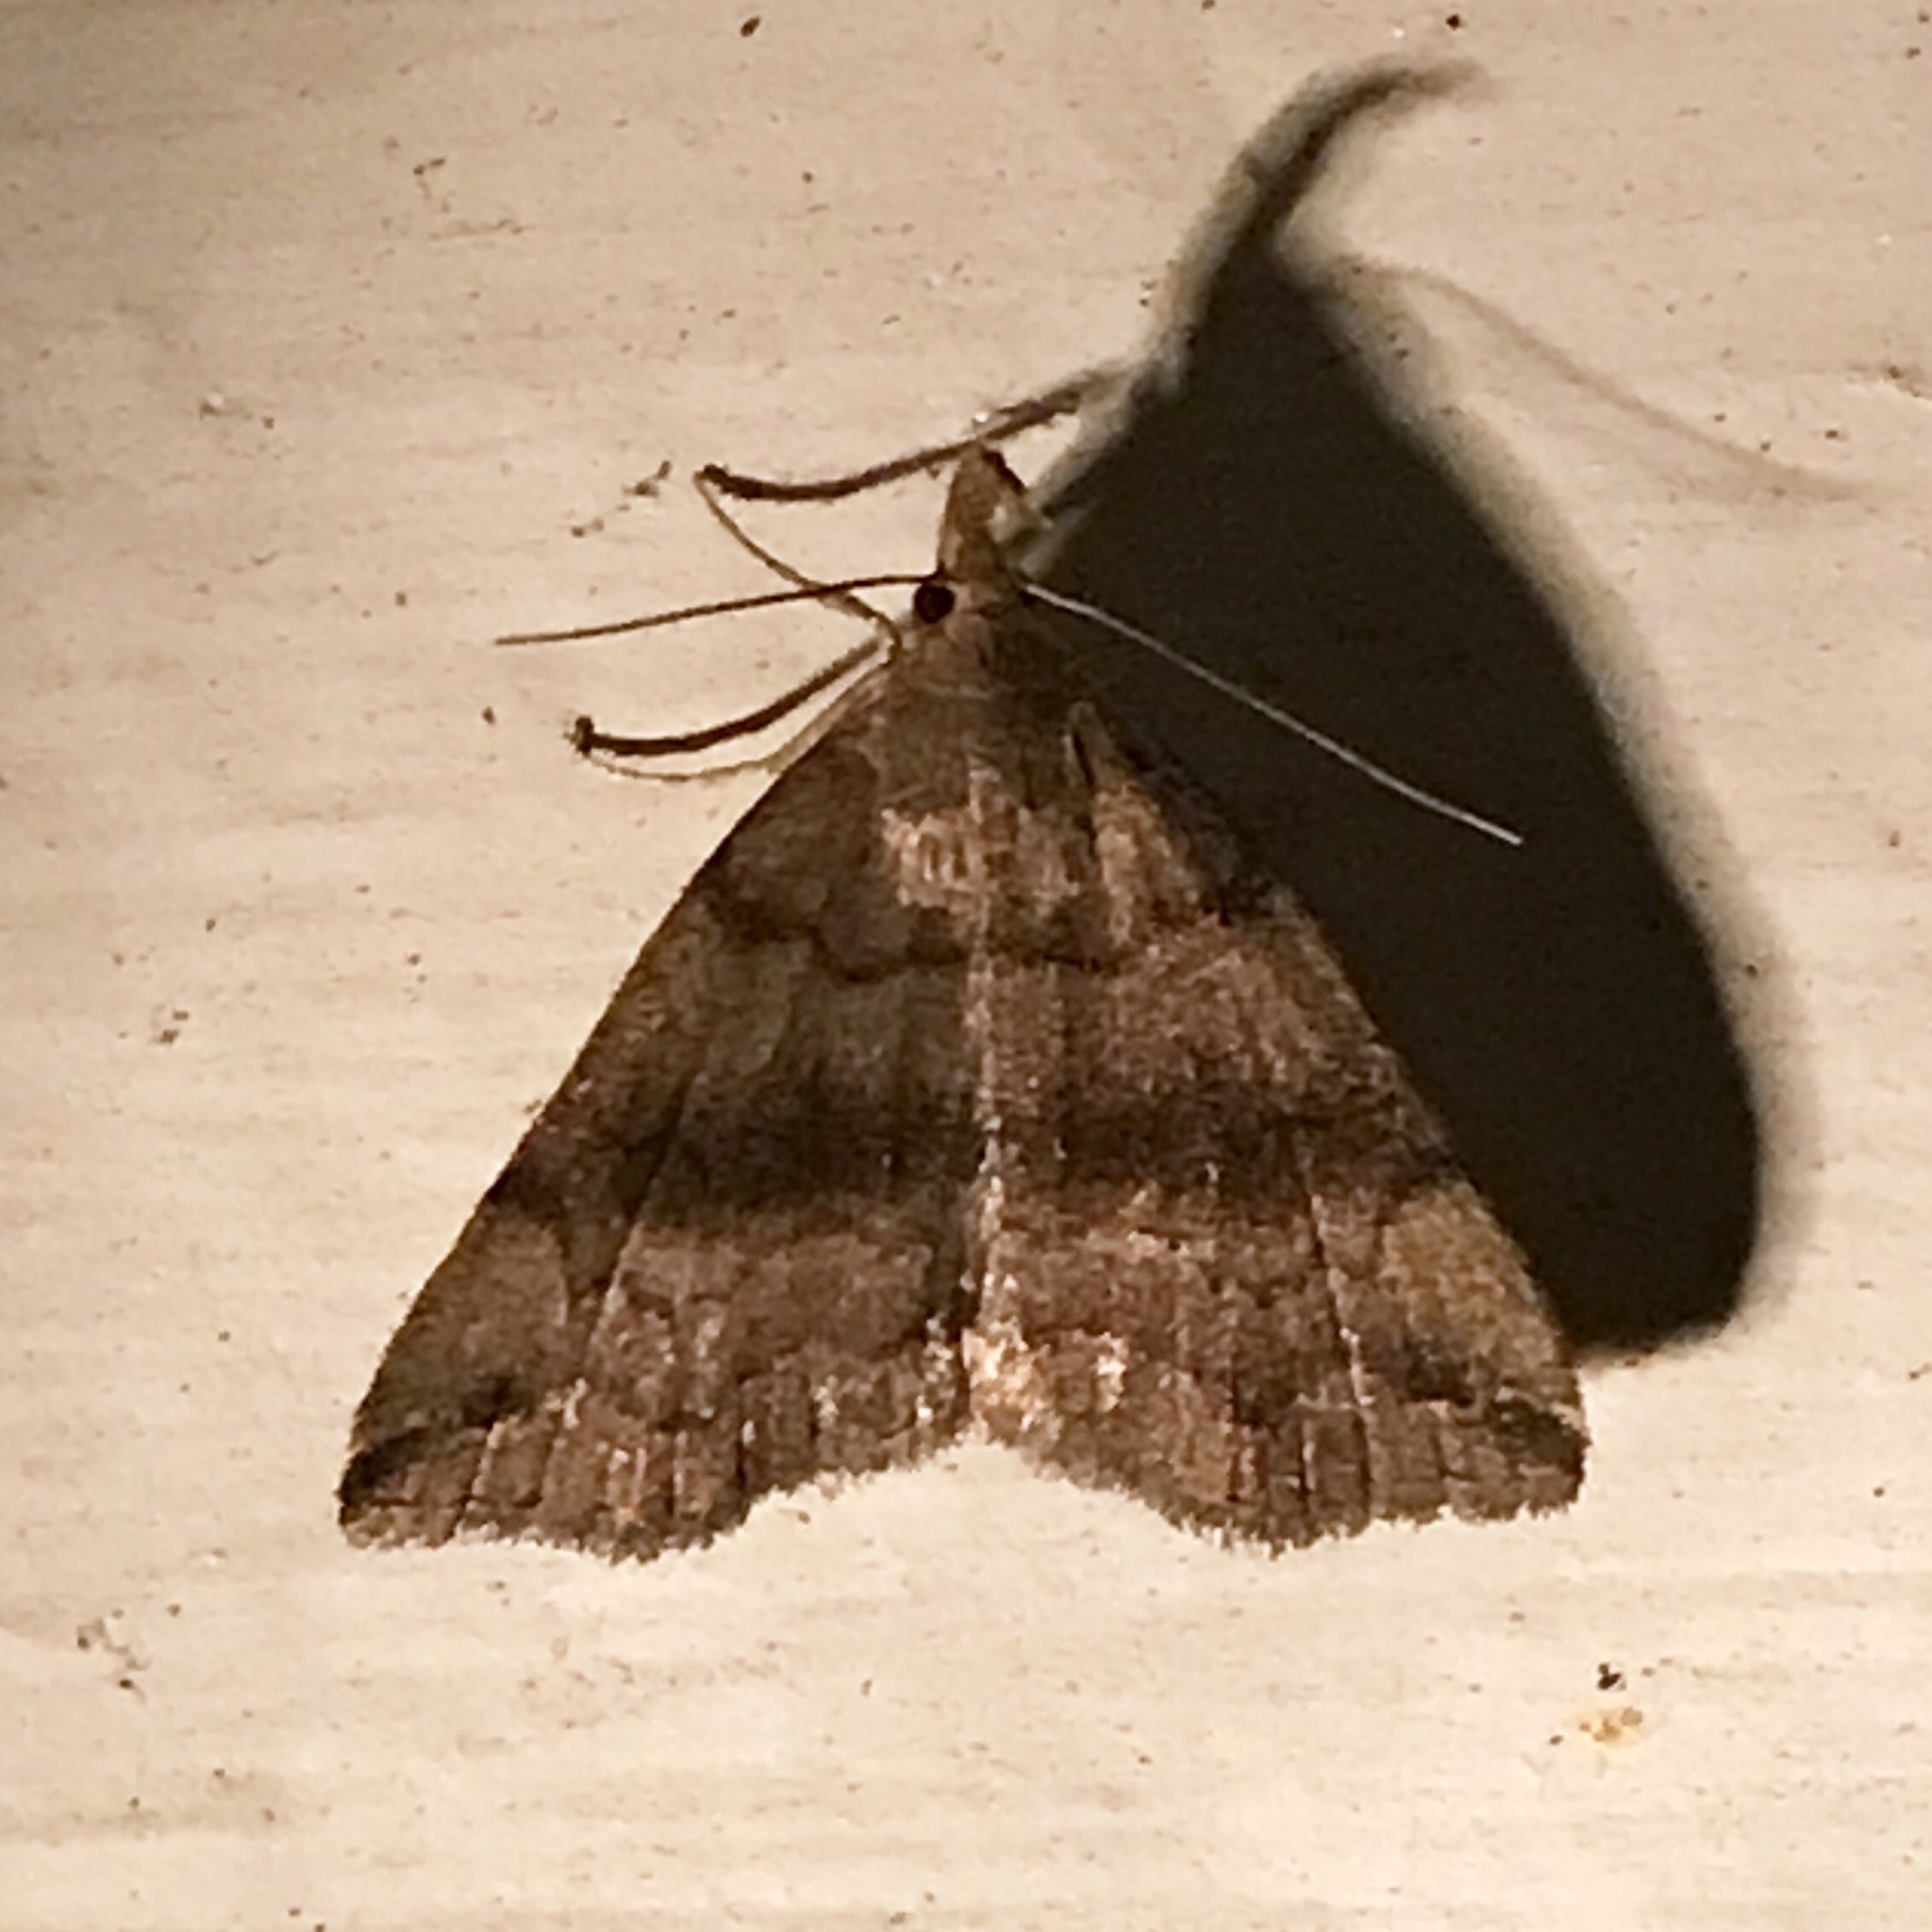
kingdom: Animalia
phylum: Arthropoda
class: Insecta
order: Lepidoptera
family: Erebidae
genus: Phalaenostola
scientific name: Phalaenostola eumelusalis
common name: Dark phalaenostola moth
